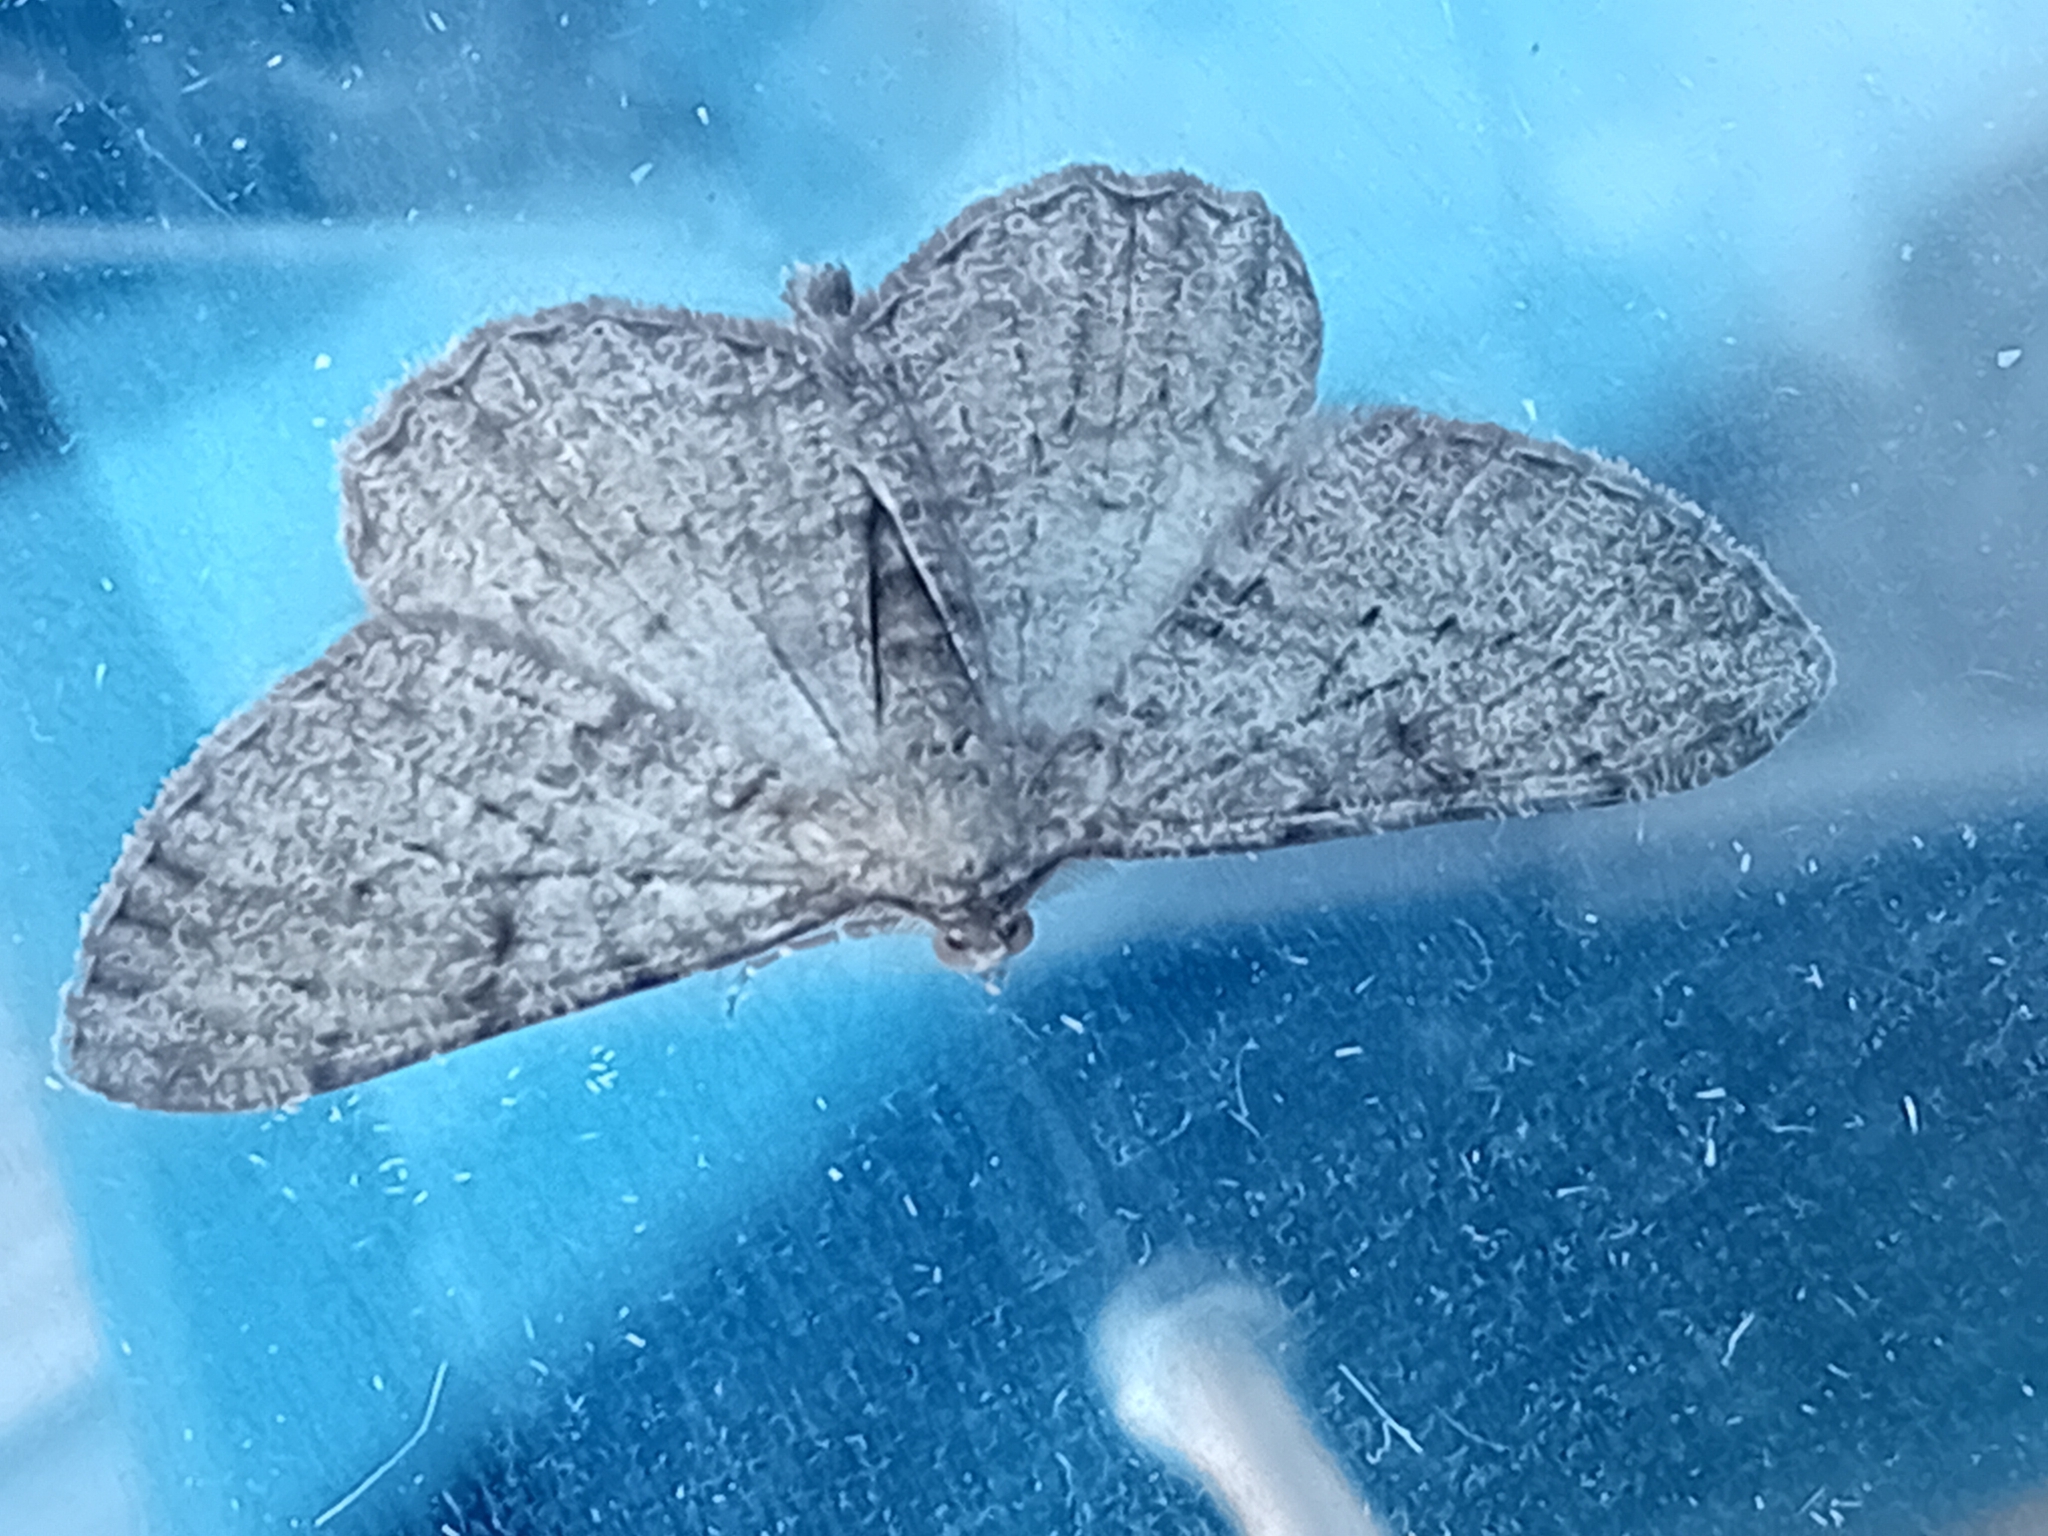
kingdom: Animalia
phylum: Arthropoda
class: Insecta
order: Lepidoptera
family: Geometridae
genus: Peribatodes
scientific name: Peribatodes rhomboidaria
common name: Willow beauty
